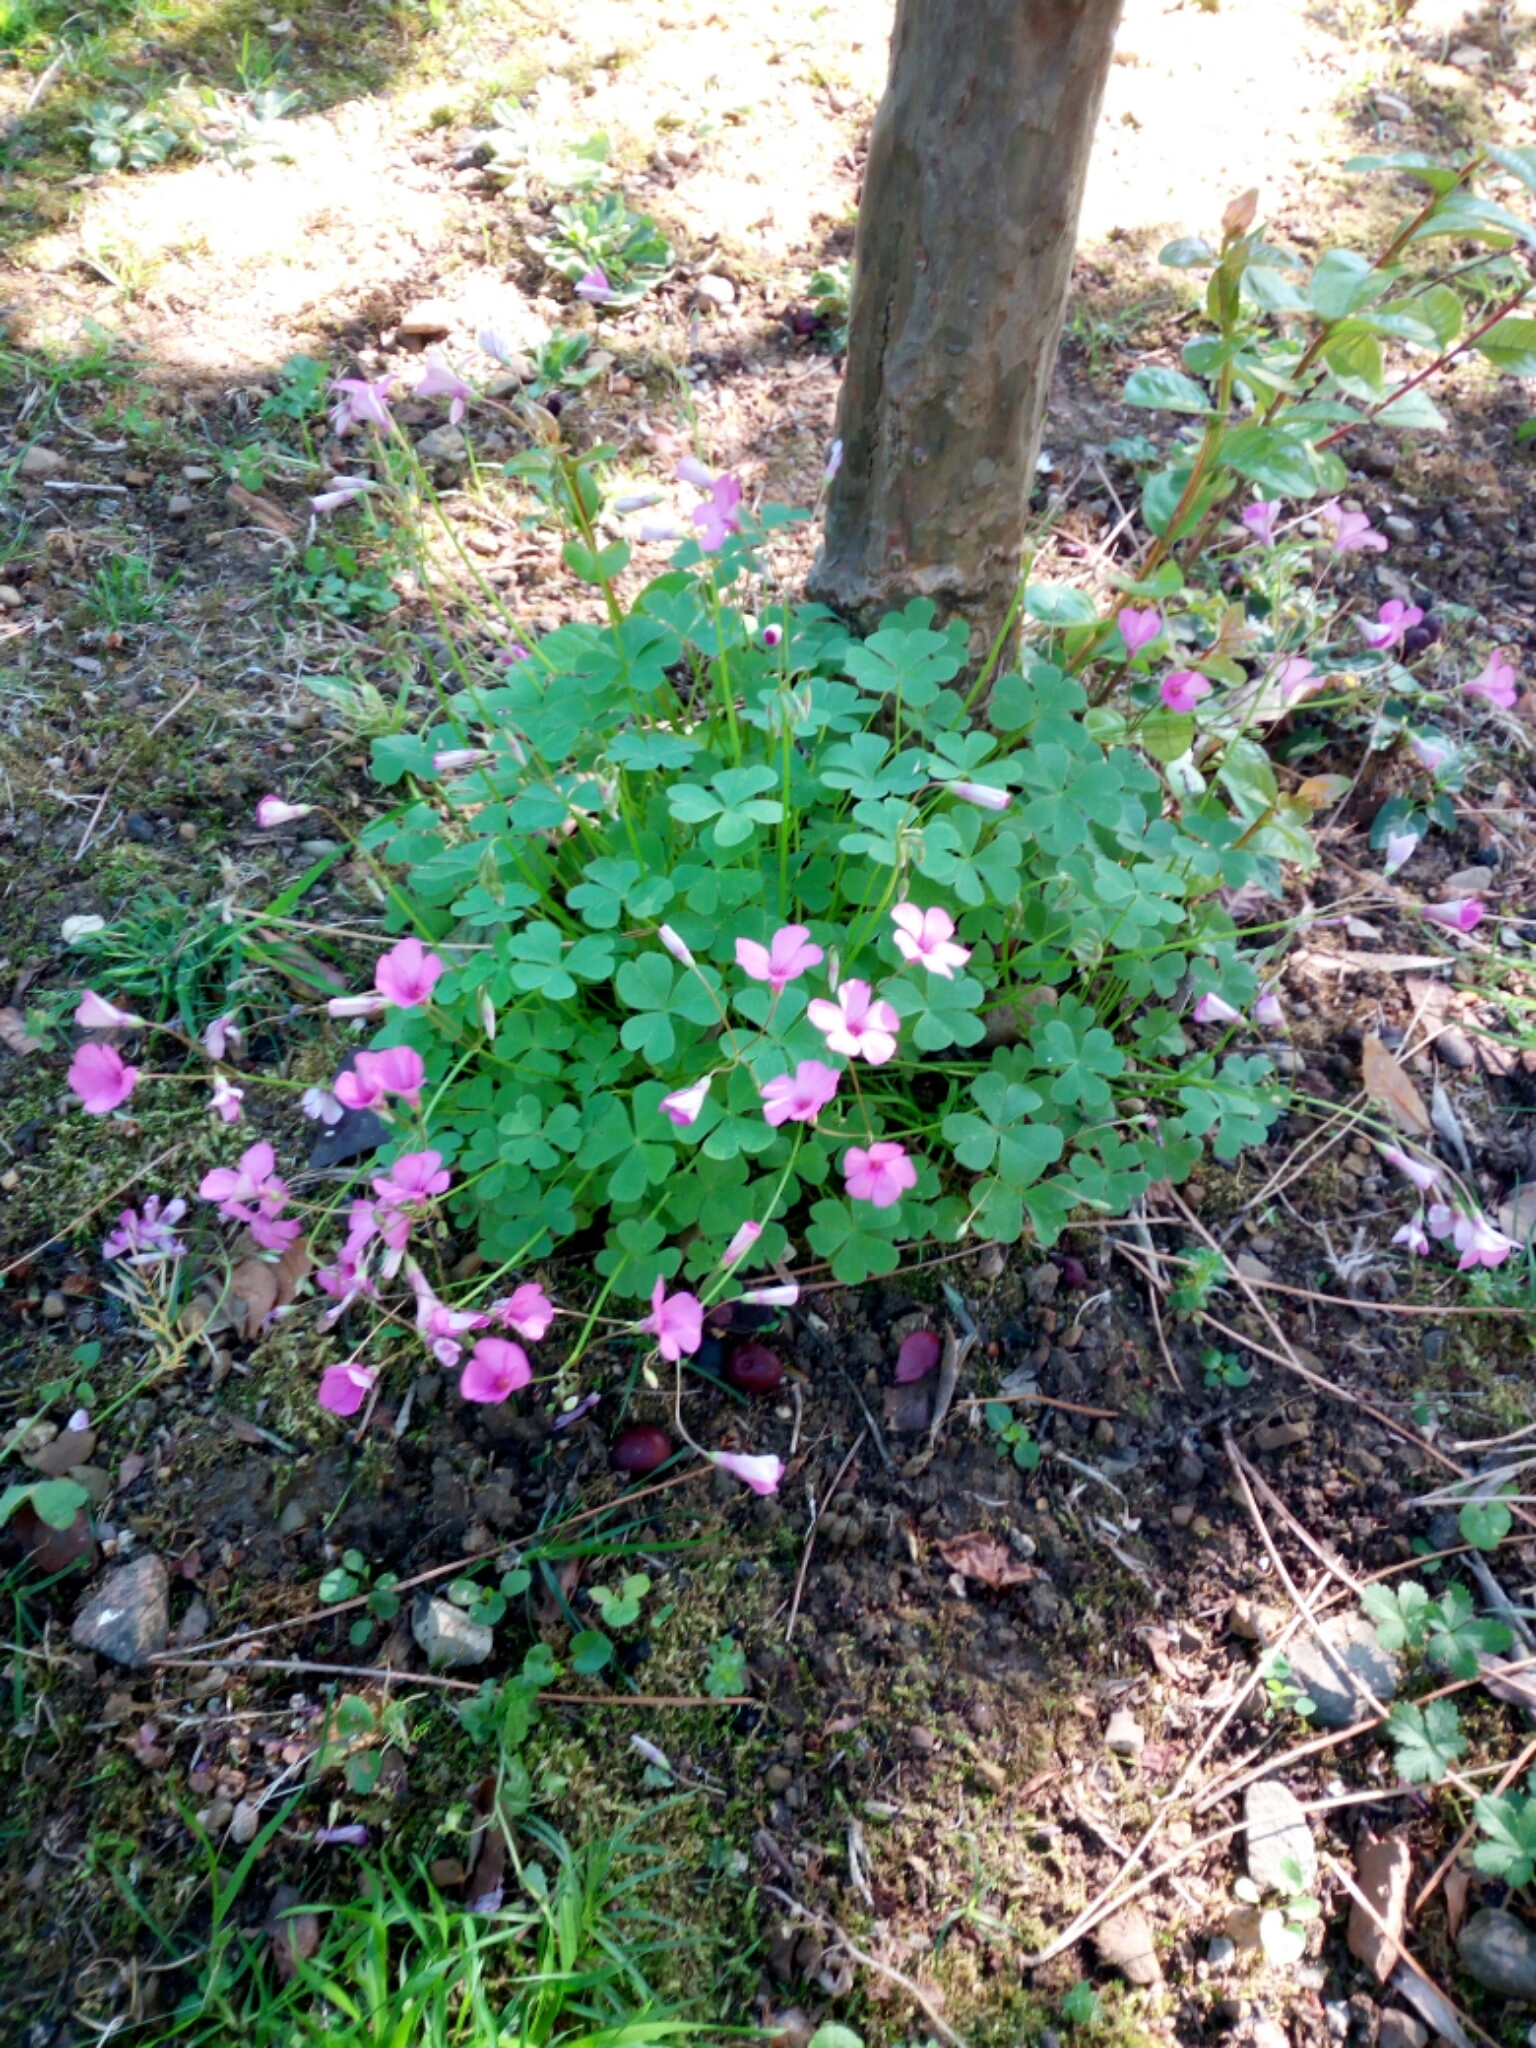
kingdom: Plantae
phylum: Tracheophyta
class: Magnoliopsida
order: Oxalidales
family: Oxalidaceae
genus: Oxalis
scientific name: Oxalis articulata
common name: Pink-sorrel
